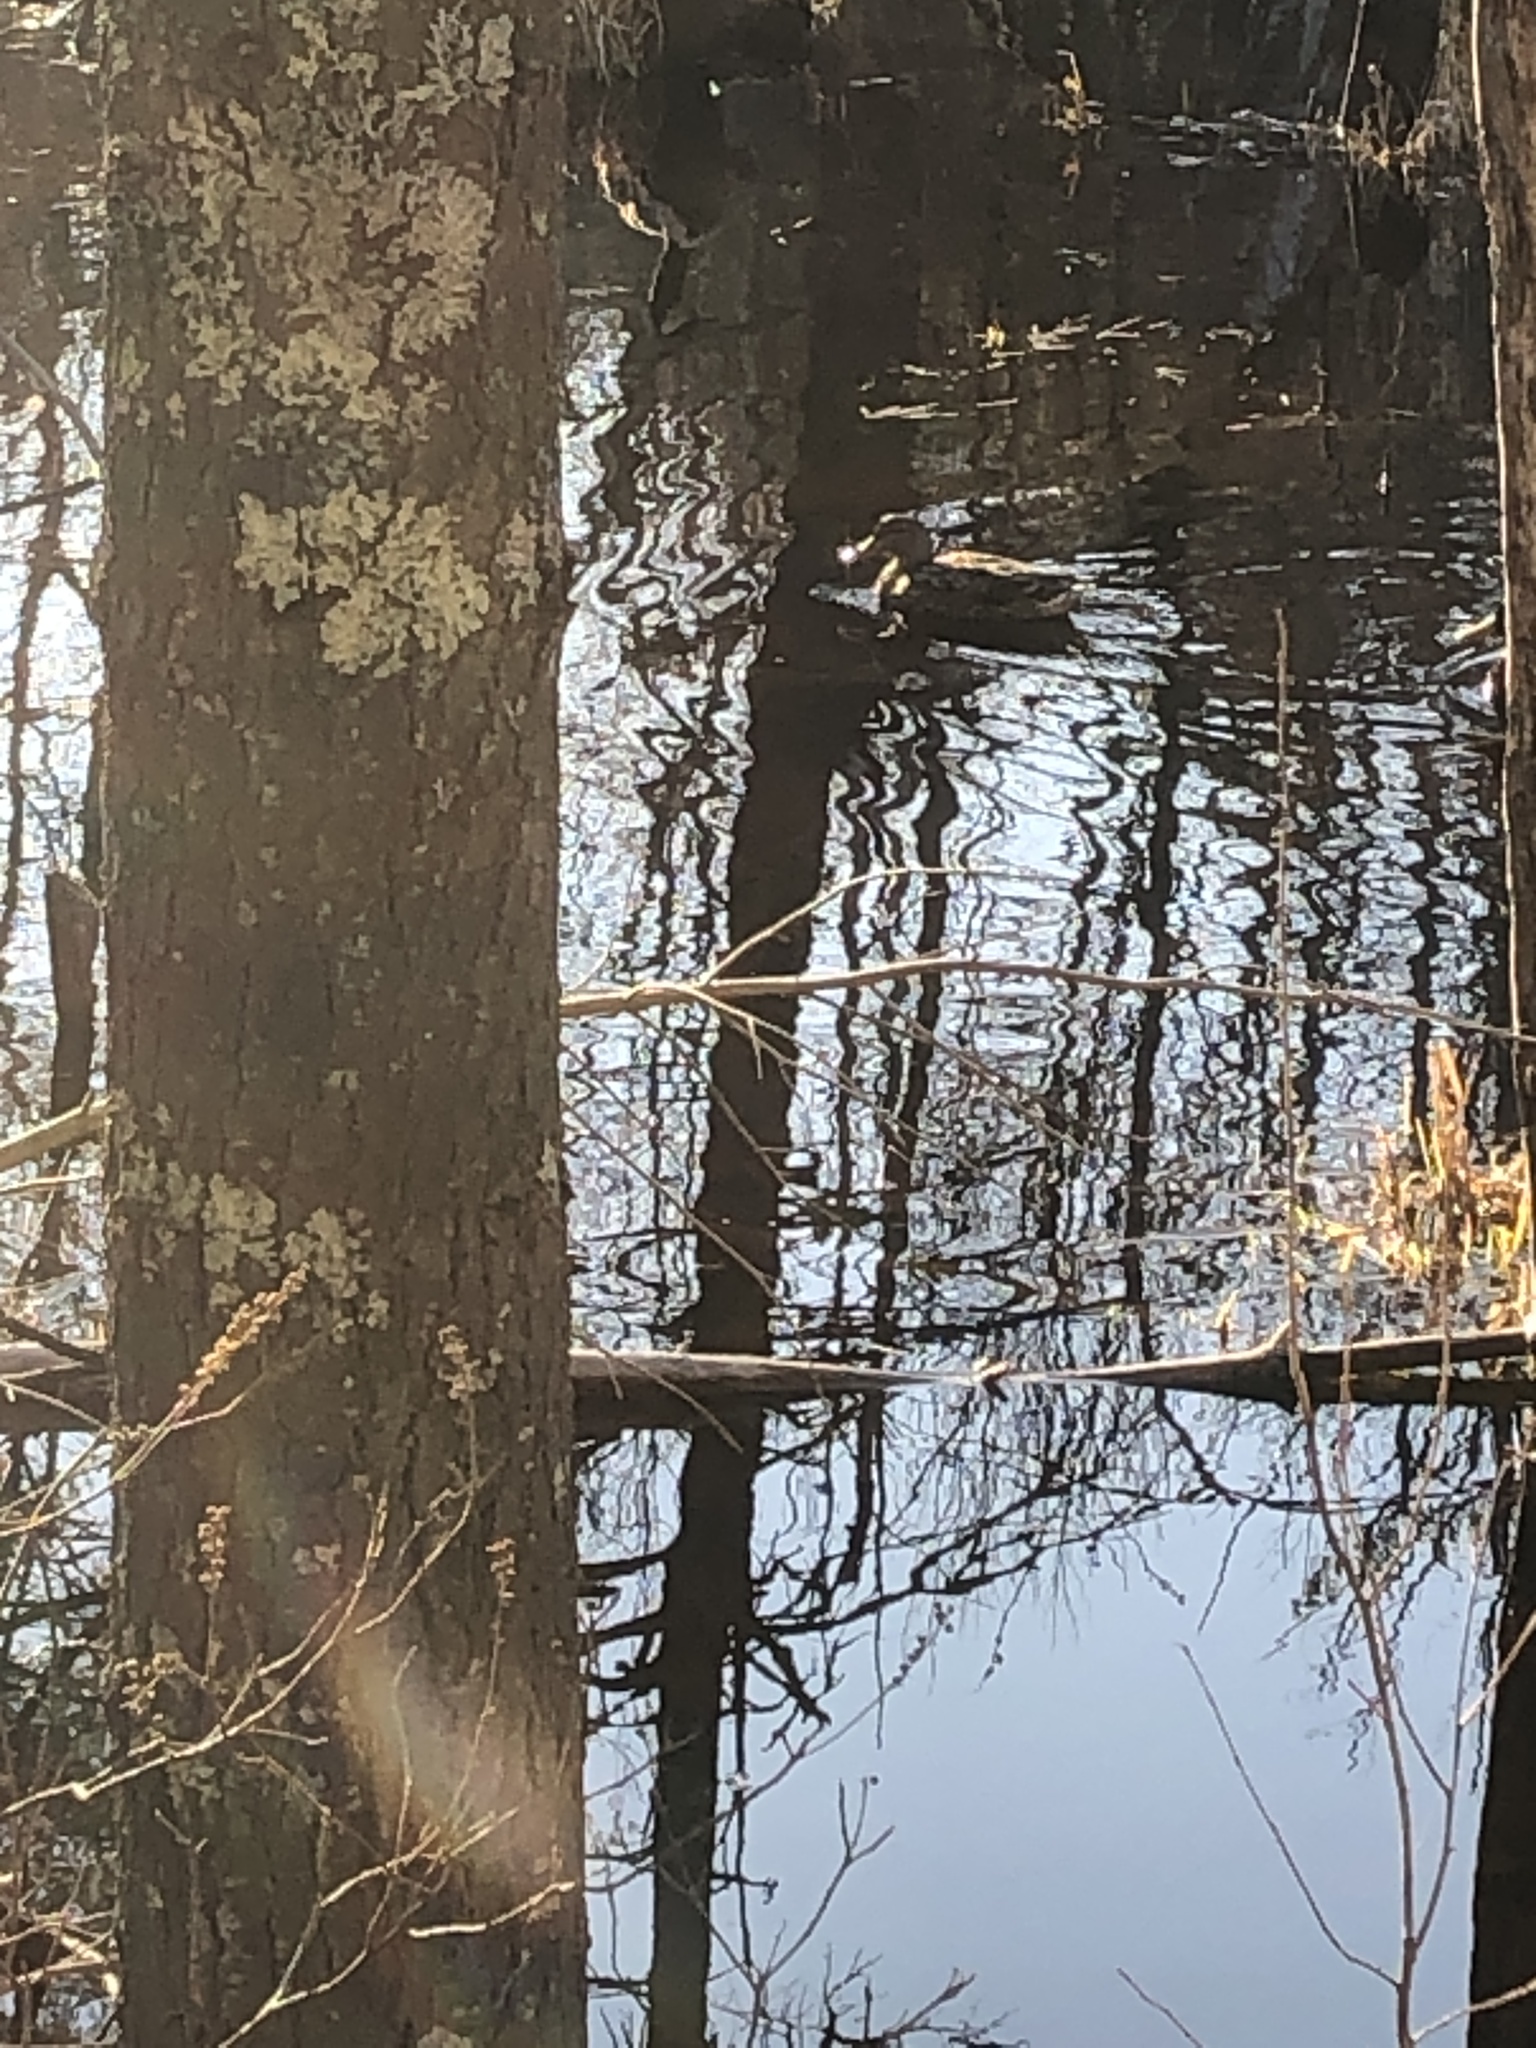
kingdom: Animalia
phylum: Chordata
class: Aves
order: Anseriformes
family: Anatidae
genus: Anas
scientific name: Anas platyrhynchos
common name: Mallard
